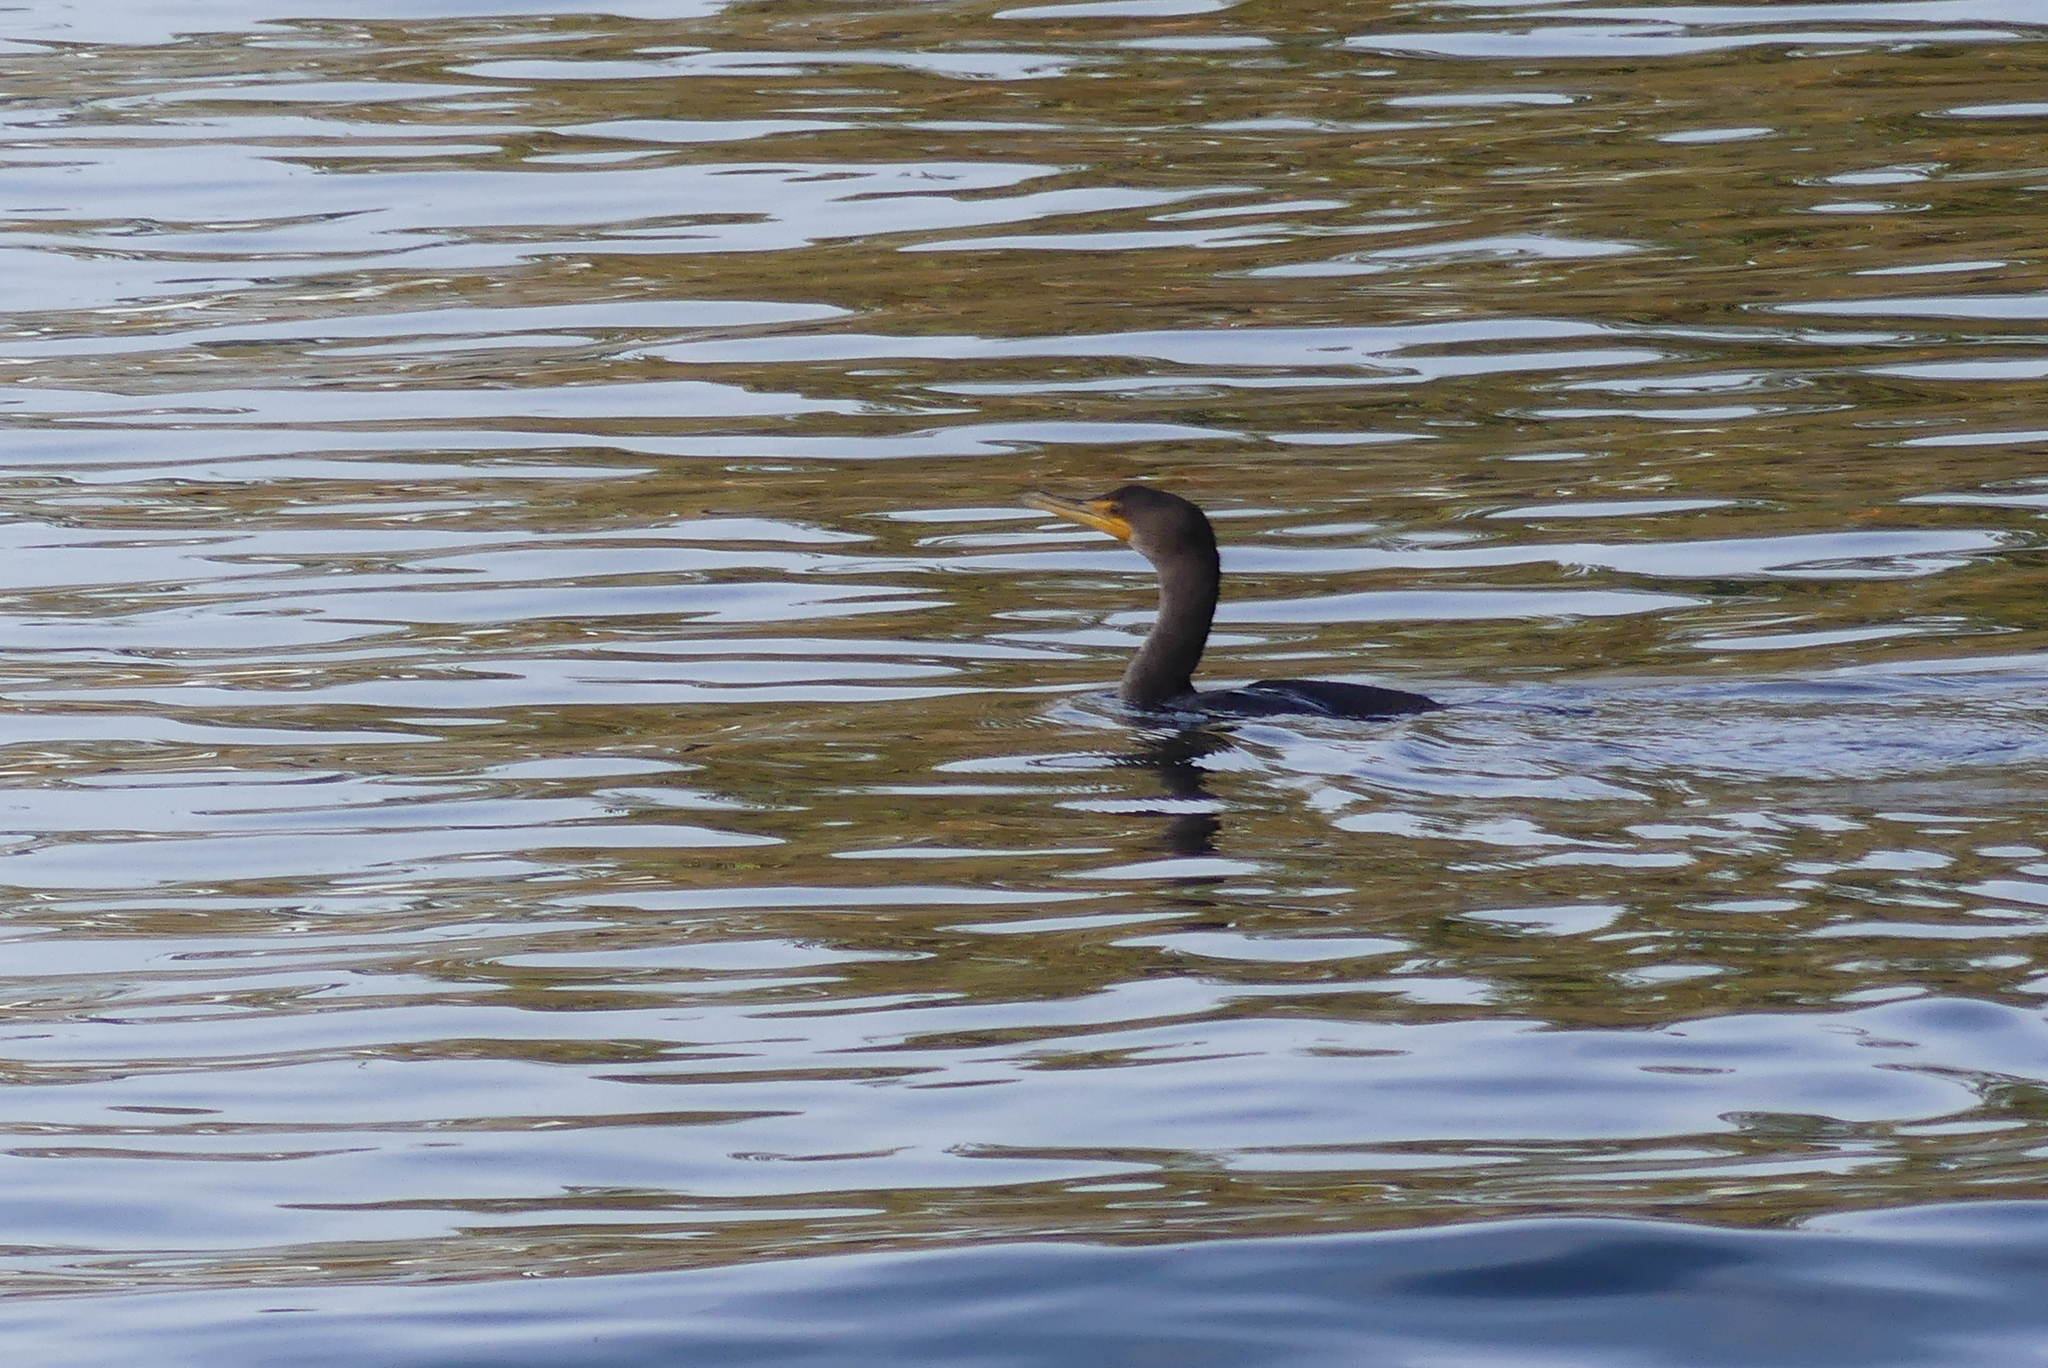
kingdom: Animalia
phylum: Chordata
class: Aves
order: Suliformes
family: Phalacrocoracidae
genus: Phalacrocorax
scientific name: Phalacrocorax auritus
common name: Double-crested cormorant
